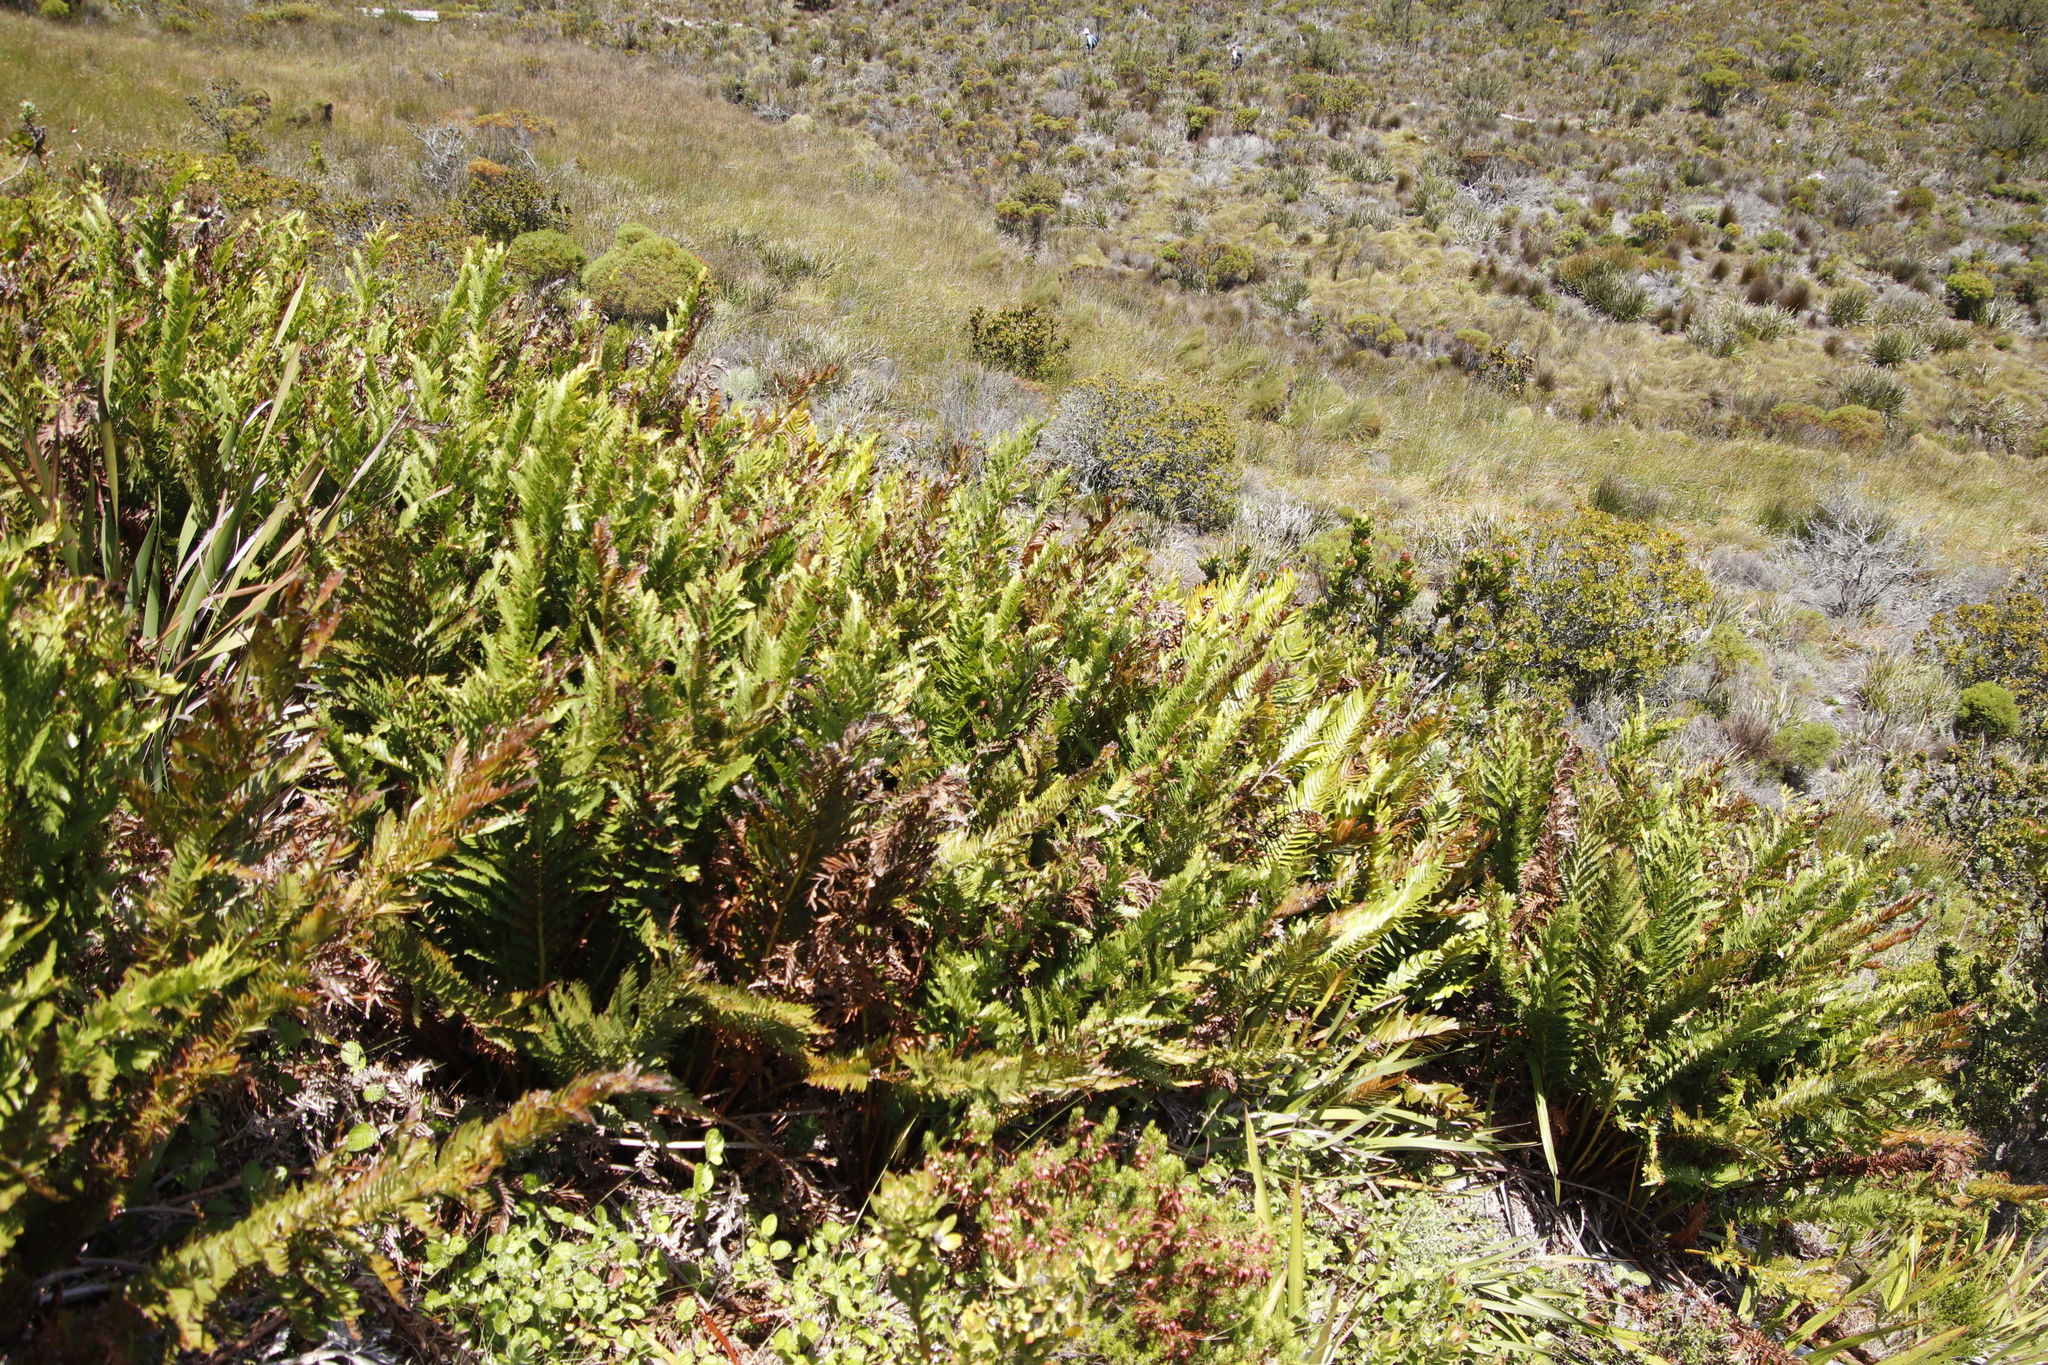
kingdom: Plantae
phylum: Tracheophyta
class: Polypodiopsida
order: Osmundales
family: Osmundaceae
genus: Todea
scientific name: Todea barbara
